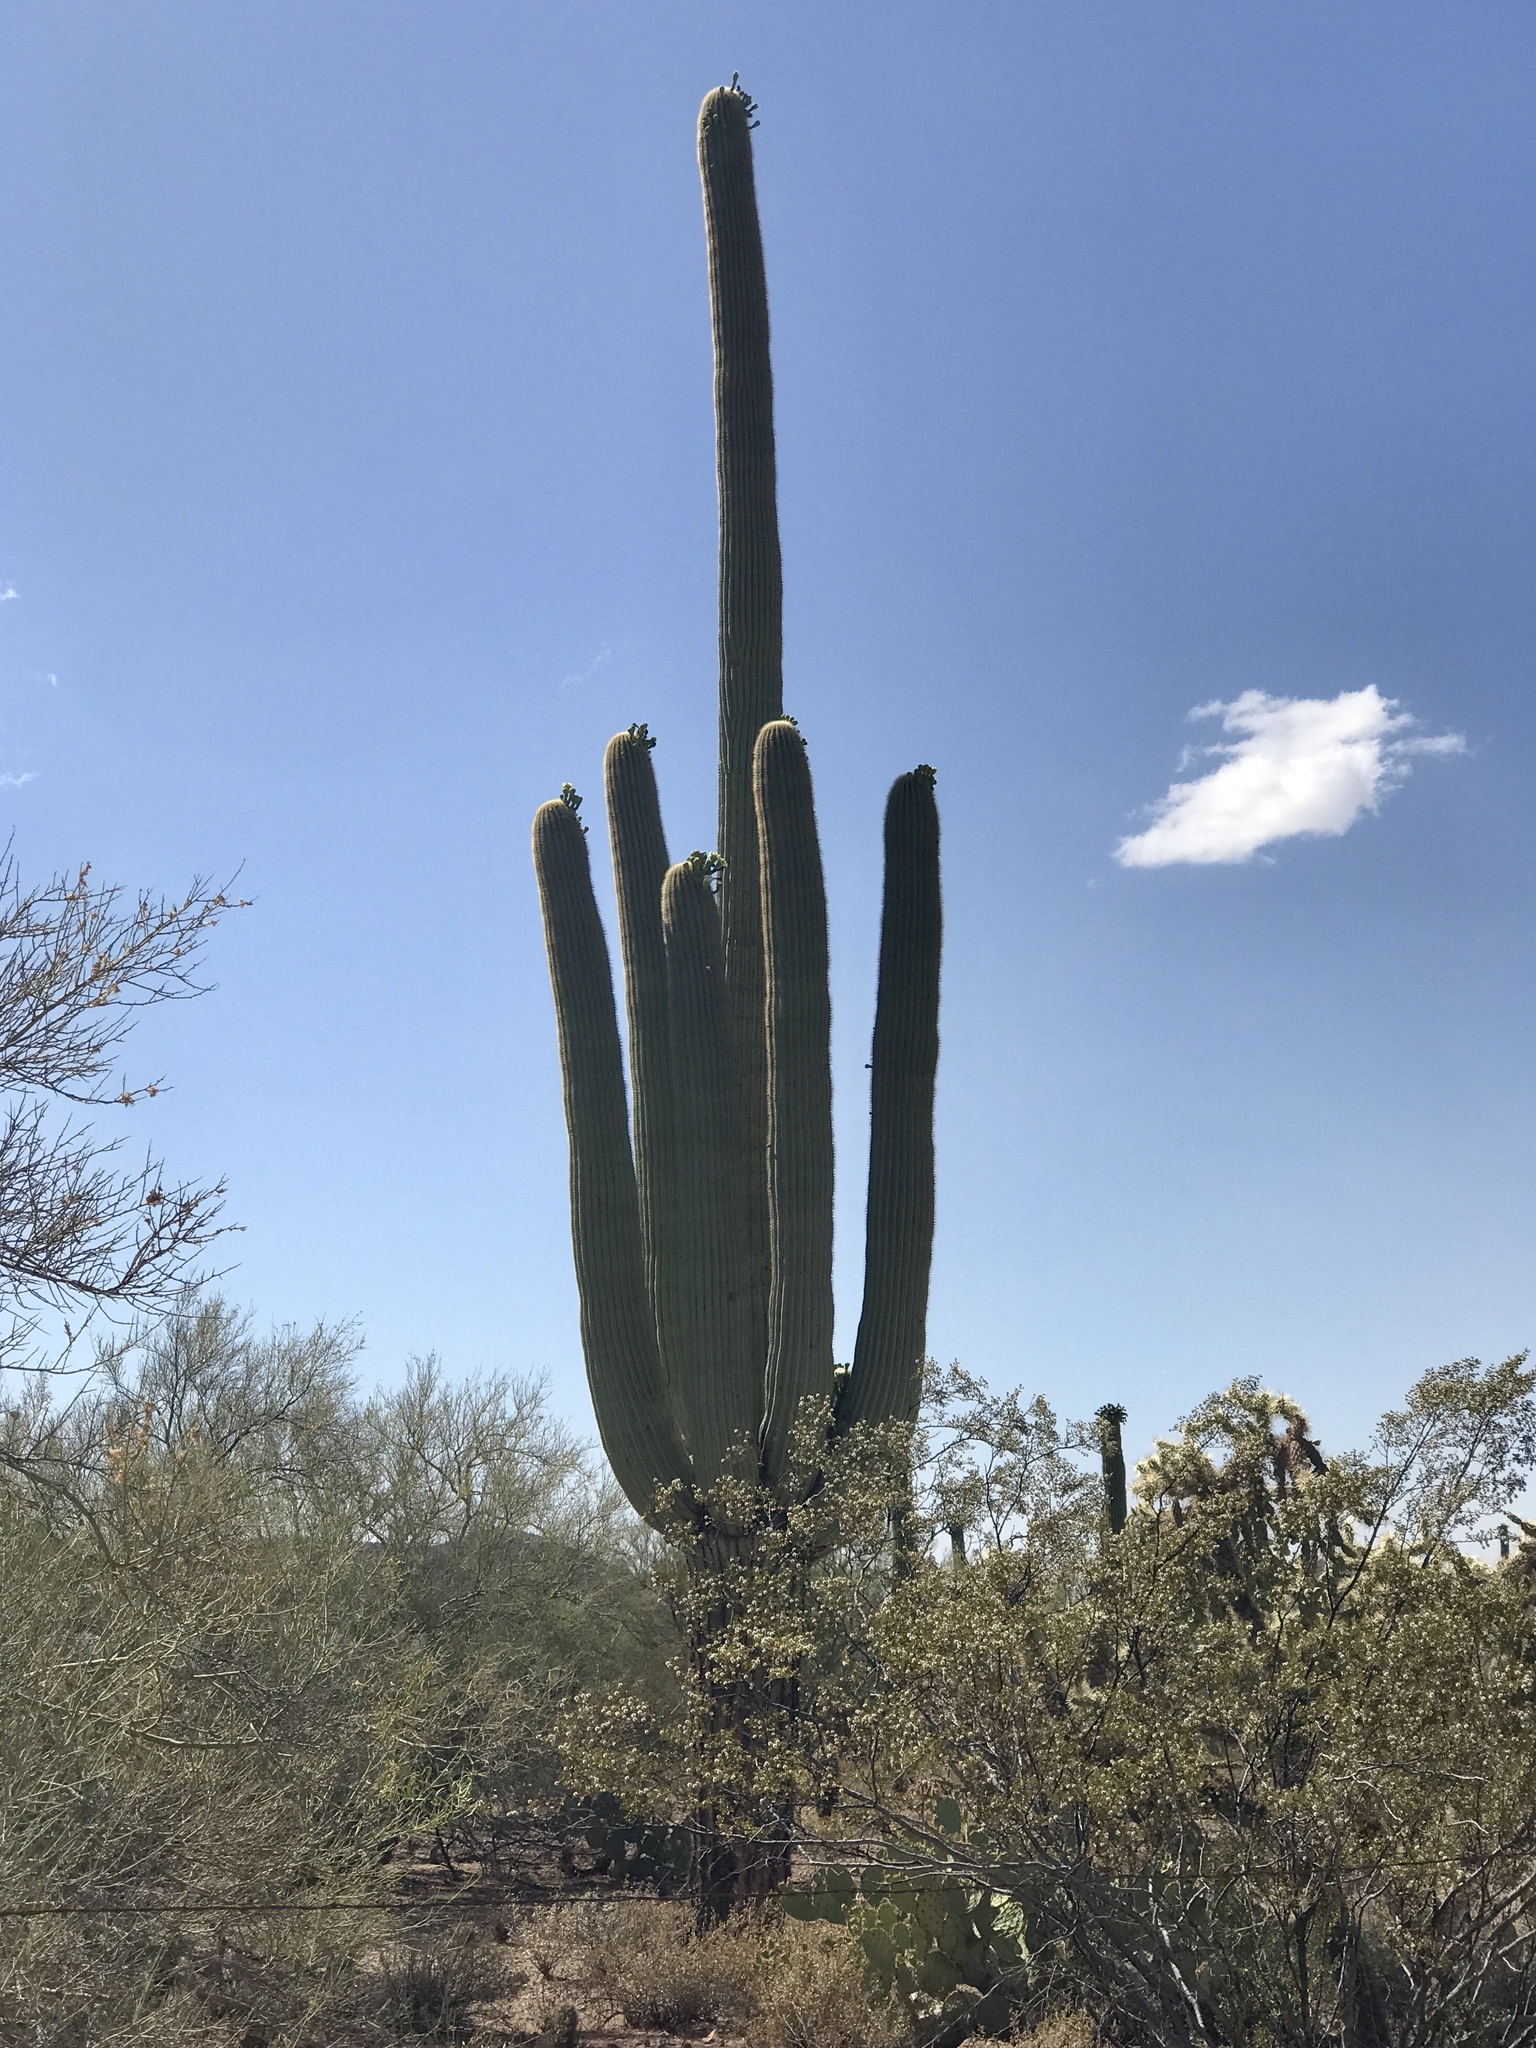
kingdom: Plantae
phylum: Tracheophyta
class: Magnoliopsida
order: Caryophyllales
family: Cactaceae
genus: Carnegiea
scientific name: Carnegiea gigantea
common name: Saguaro
